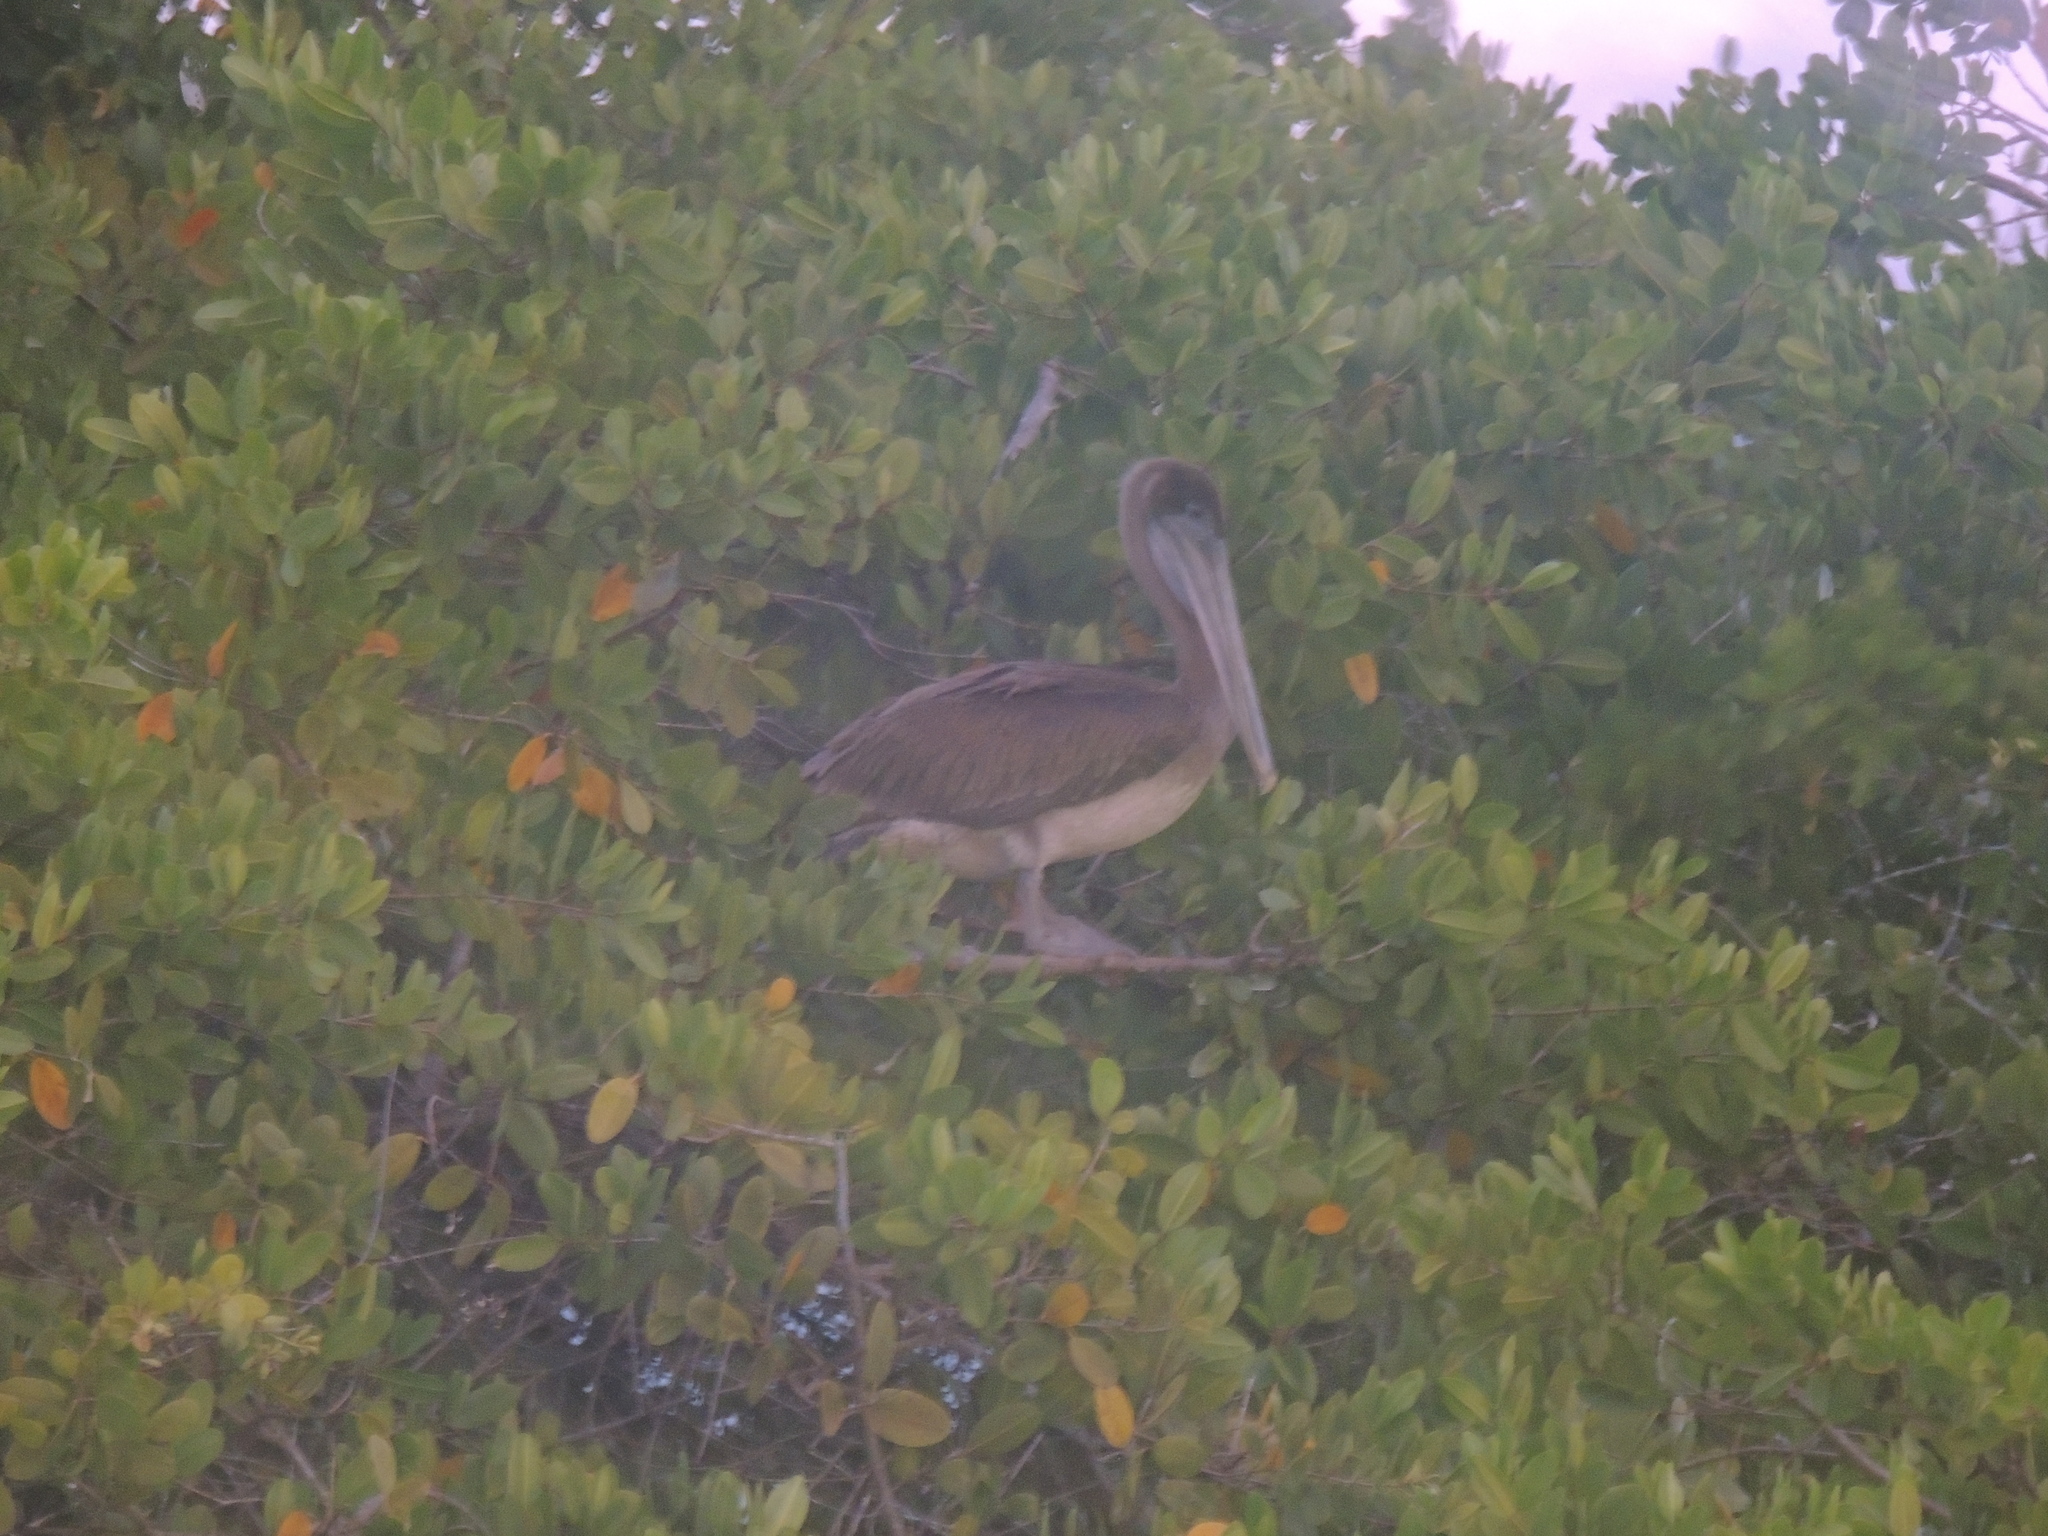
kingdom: Animalia
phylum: Chordata
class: Aves
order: Pelecaniformes
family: Pelecanidae
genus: Pelecanus
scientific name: Pelecanus occidentalis
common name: Brown pelican
